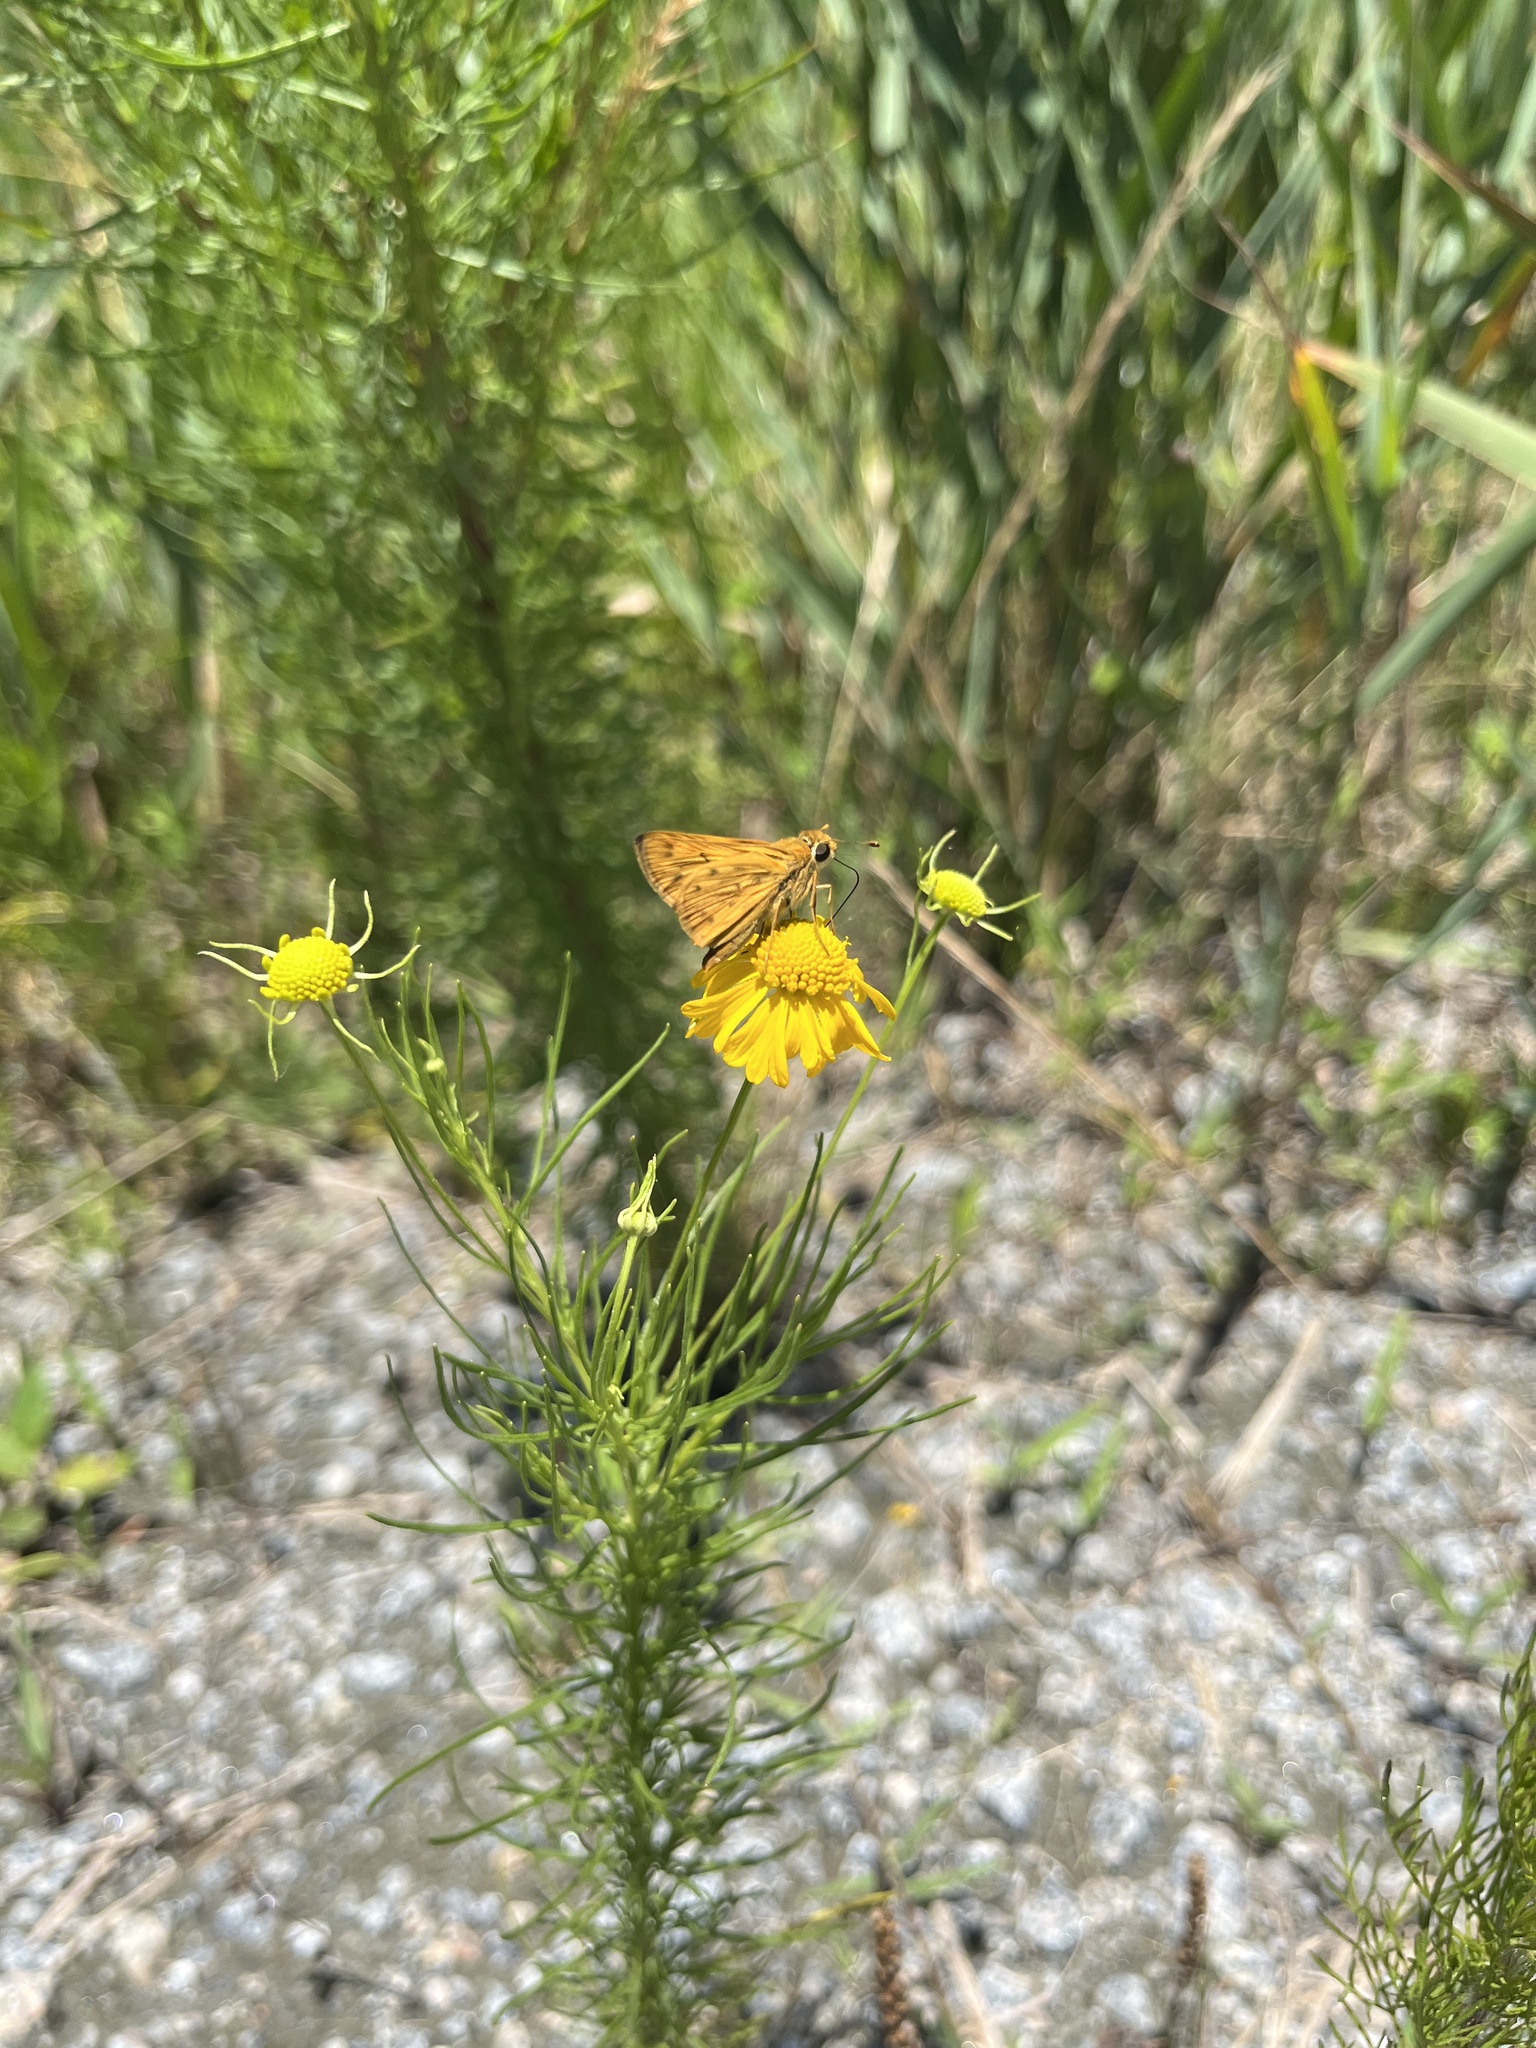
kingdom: Animalia
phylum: Arthropoda
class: Insecta
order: Lepidoptera
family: Hesperiidae
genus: Hylephila
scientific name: Hylephila phyleus
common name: Fiery skipper
